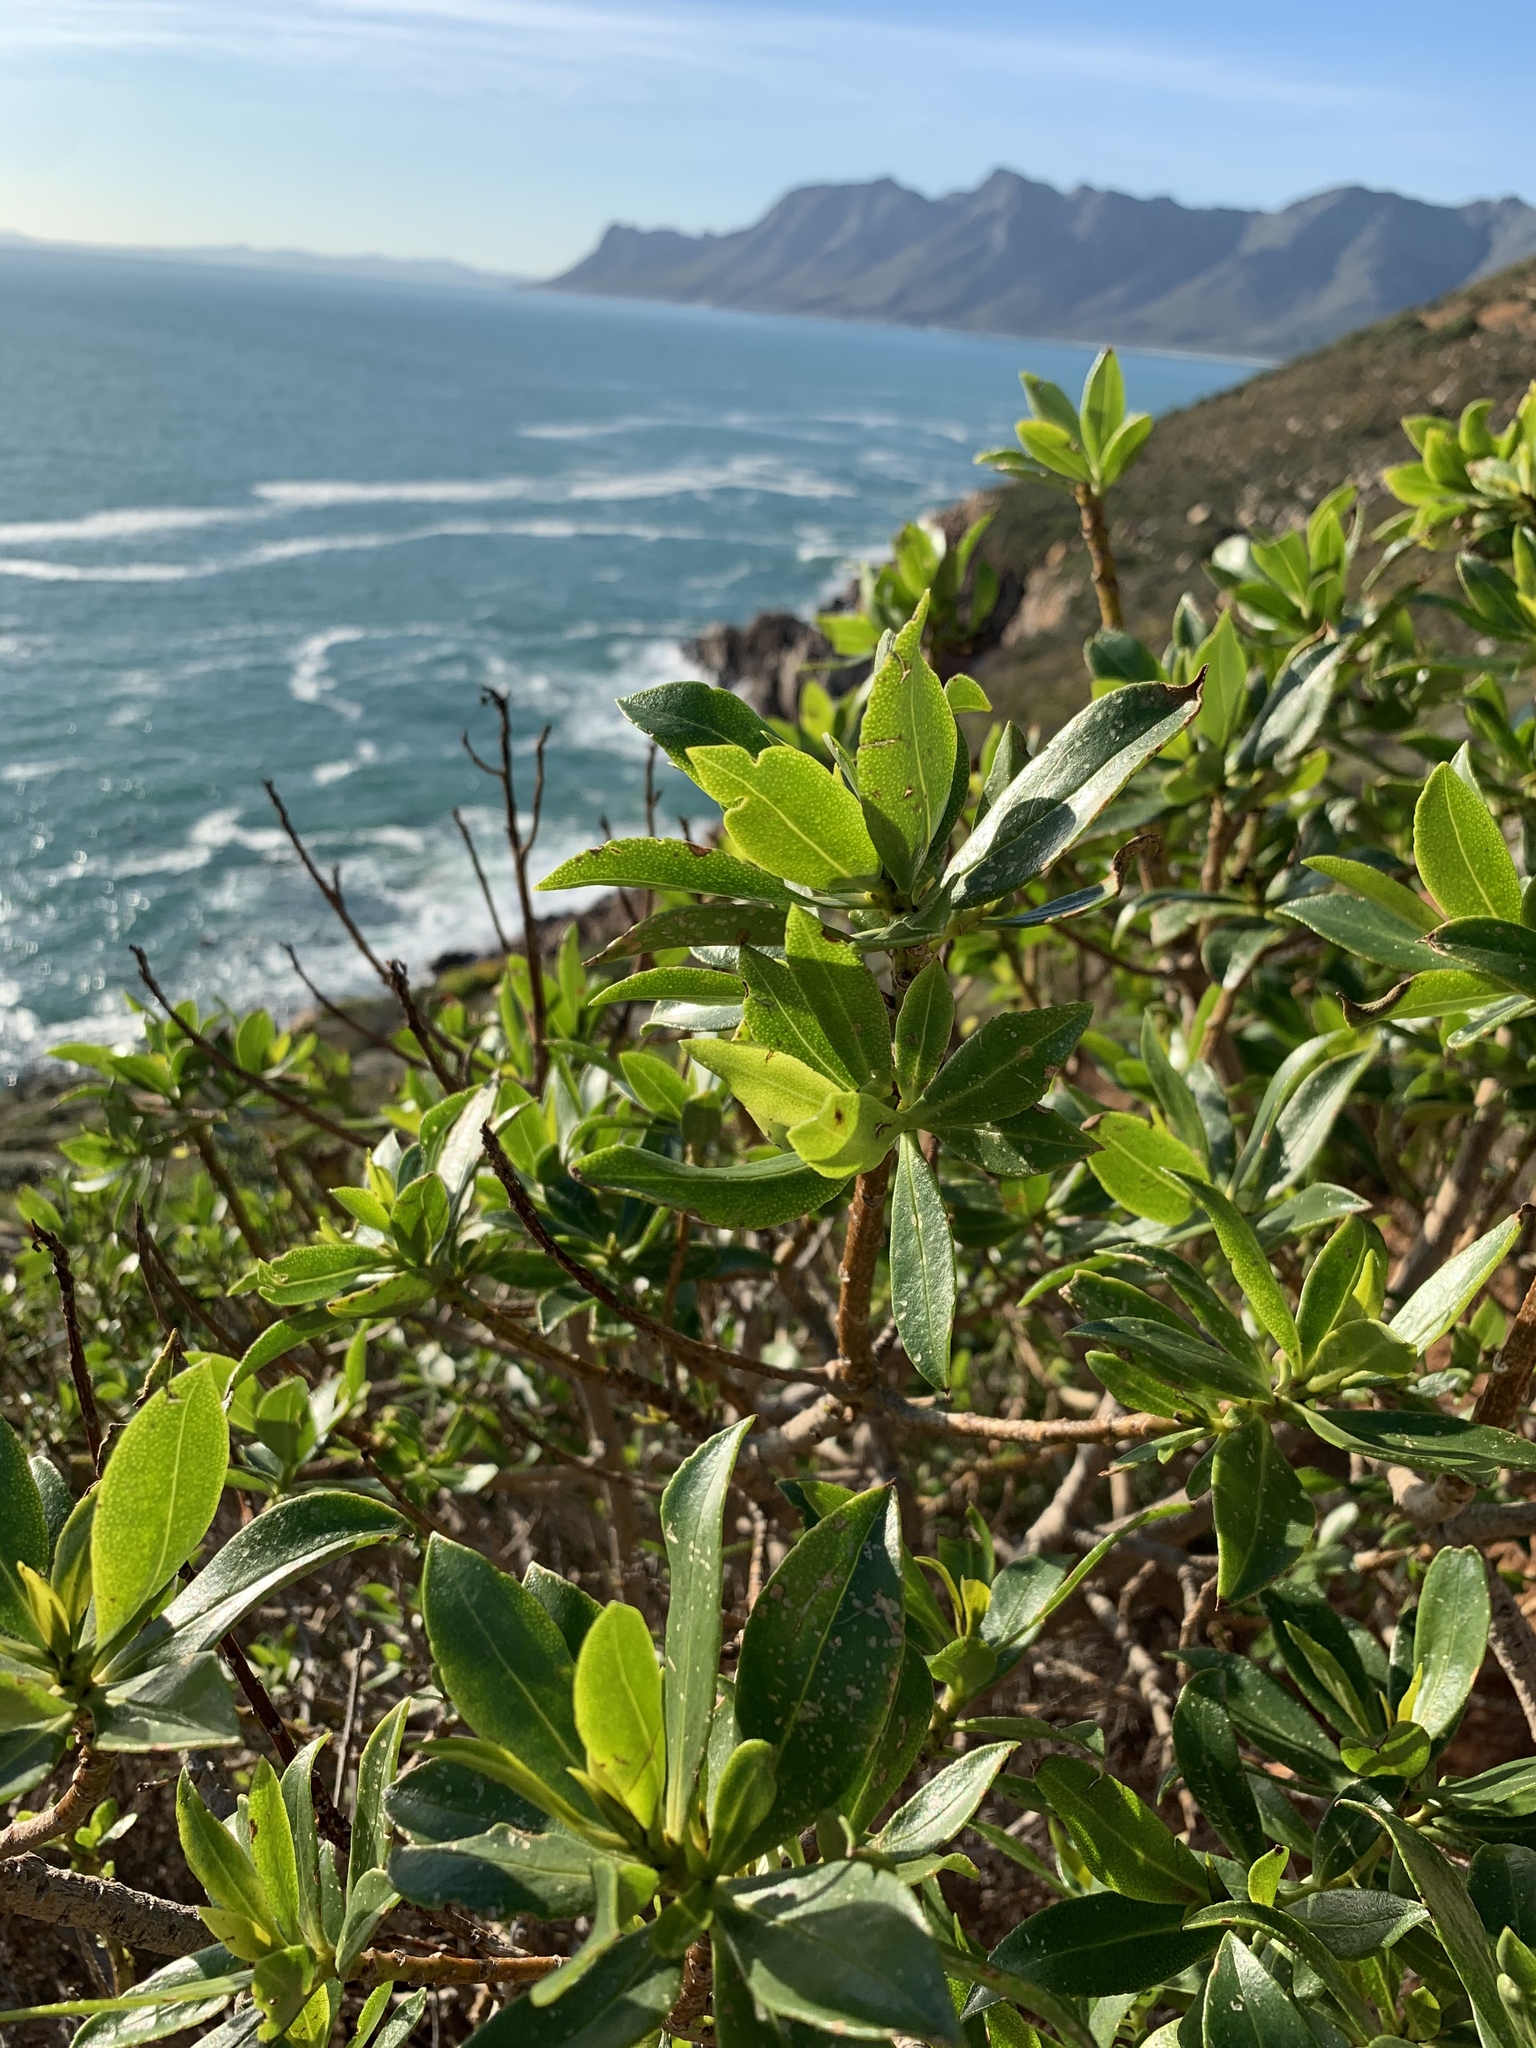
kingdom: Plantae
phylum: Tracheophyta
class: Magnoliopsida
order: Lamiales
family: Scrophulariaceae
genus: Myoporum
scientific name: Myoporum laetum
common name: Ngaio tree
